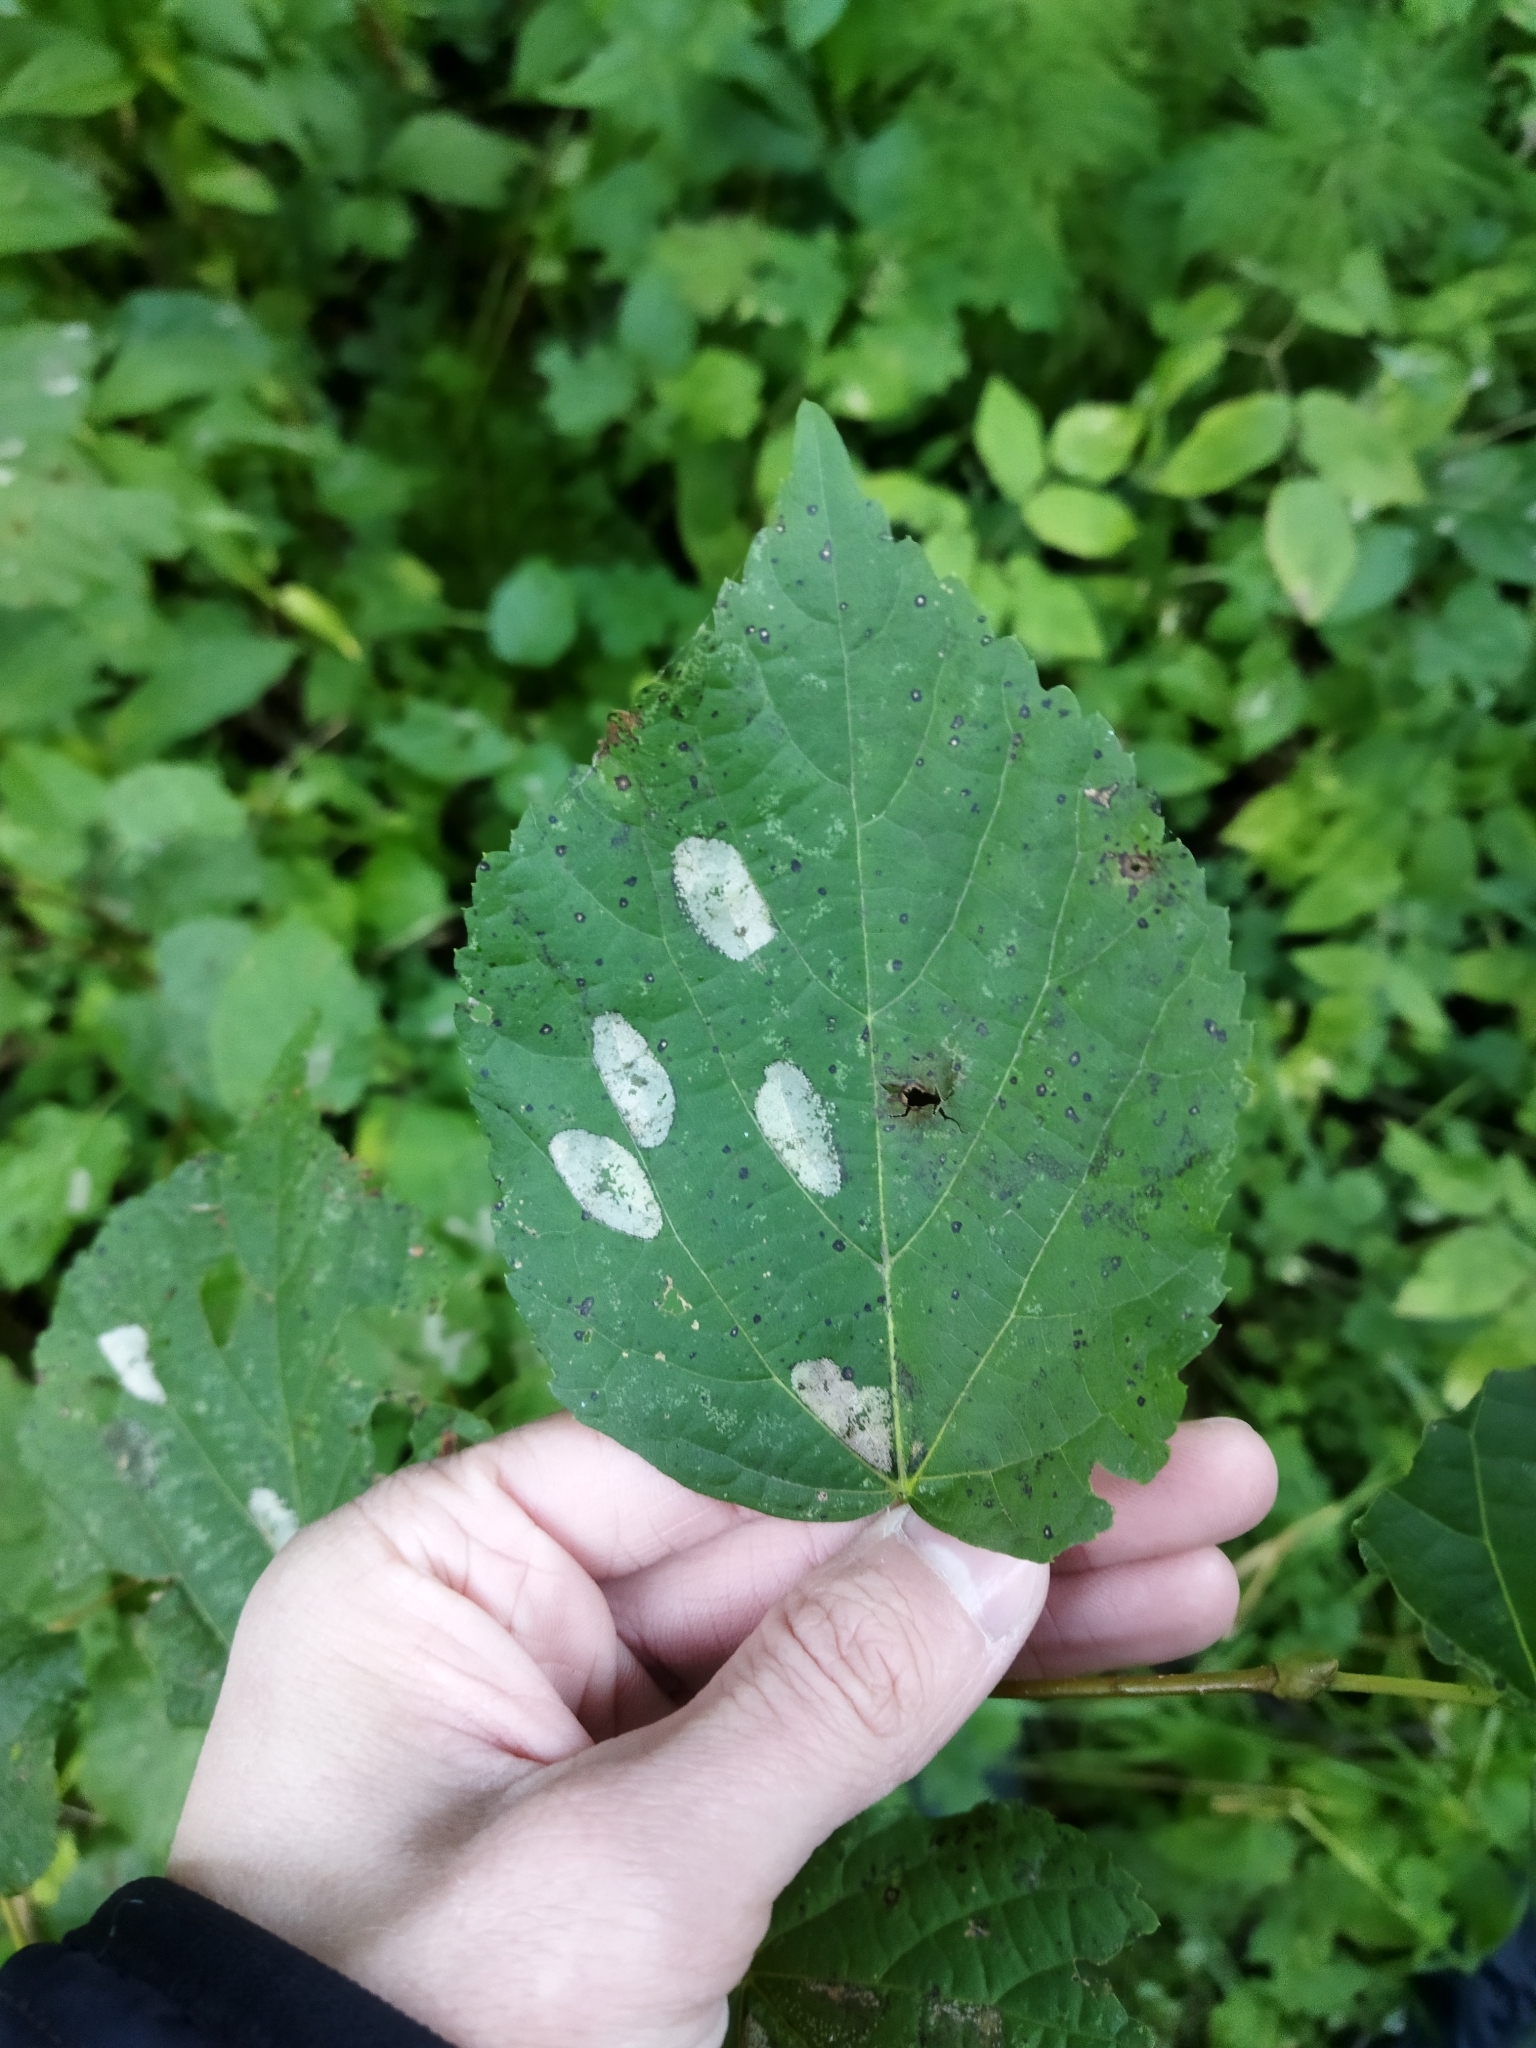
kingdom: Animalia
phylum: Arthropoda
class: Insecta
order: Lepidoptera
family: Gracillariidae
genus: Phyllonorycter
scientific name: Phyllonorycter issikii
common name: Linden midget
